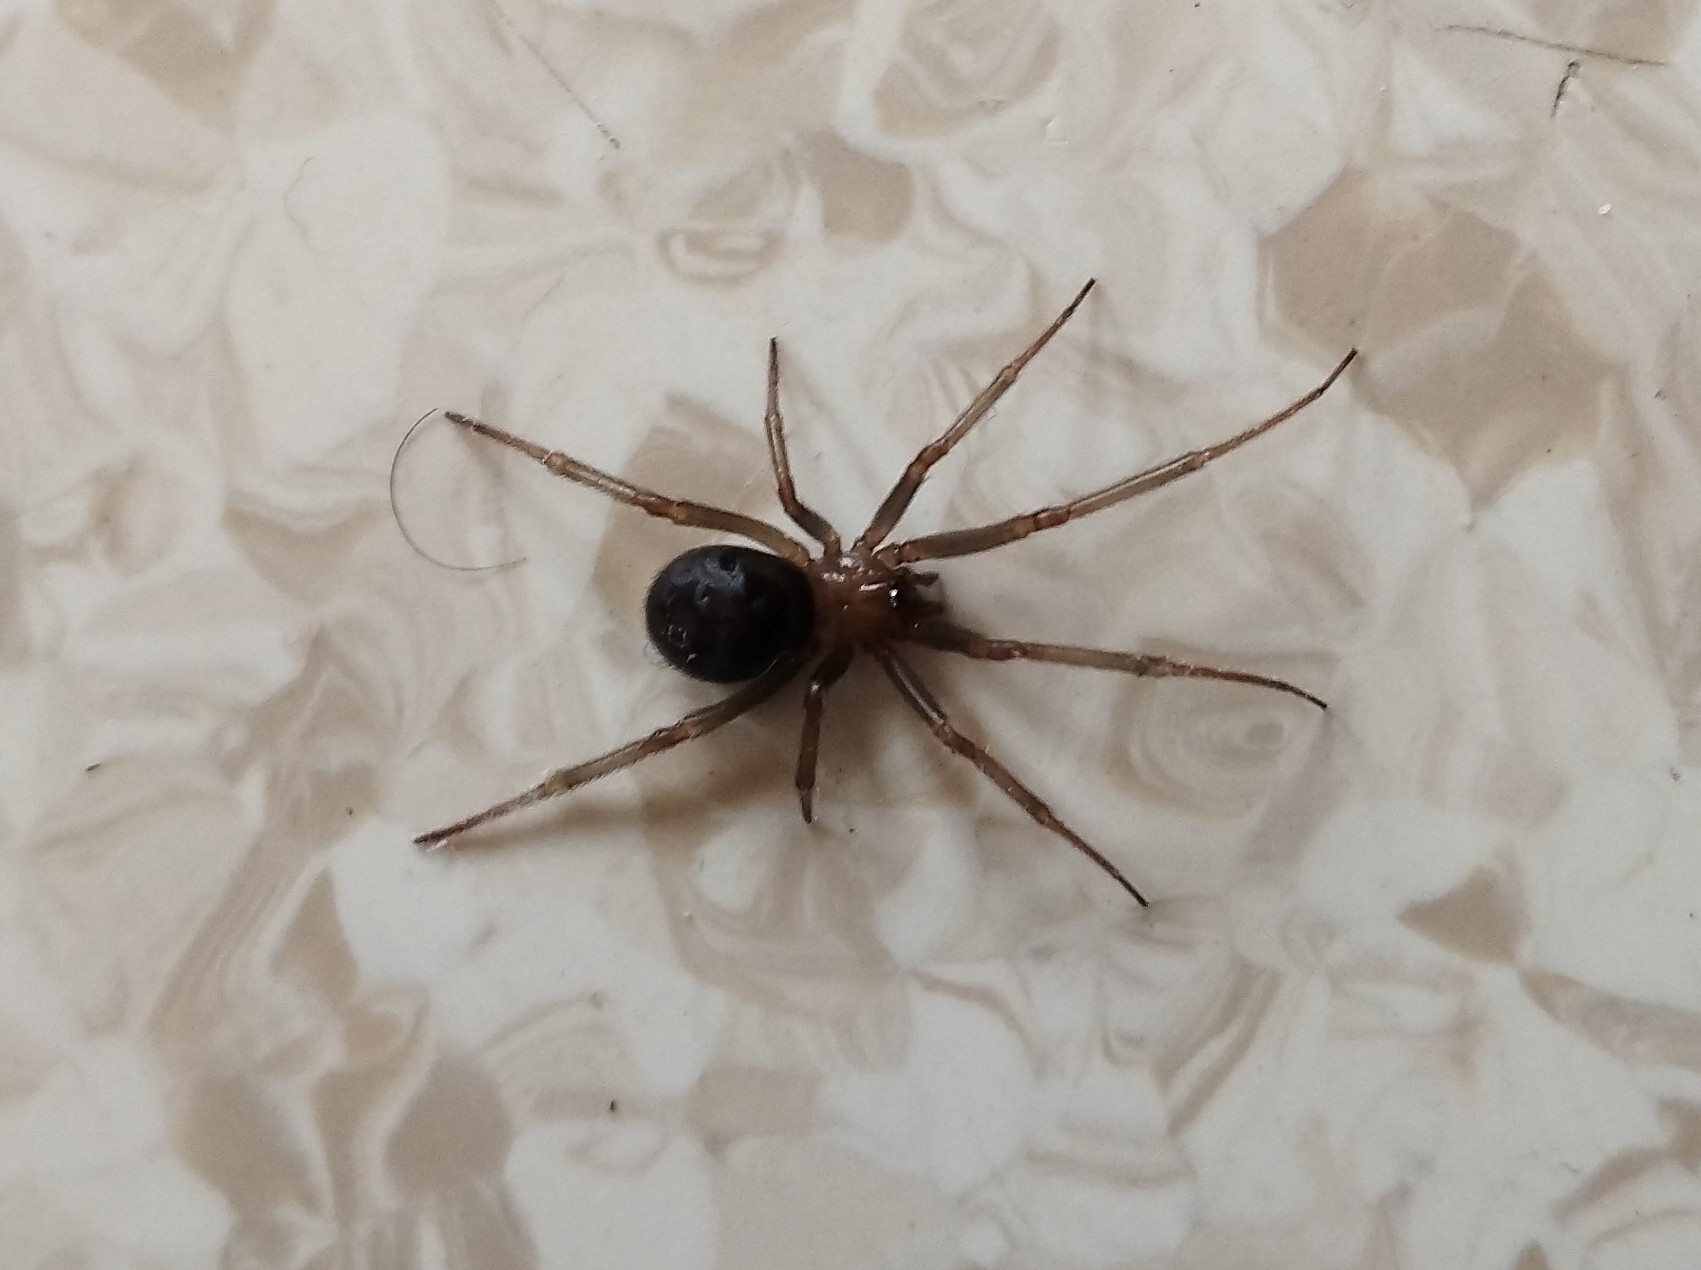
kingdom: Animalia
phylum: Arthropoda
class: Arachnida
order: Araneae
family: Theridiidae
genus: Steatoda
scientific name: Steatoda grossa
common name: False black widow
